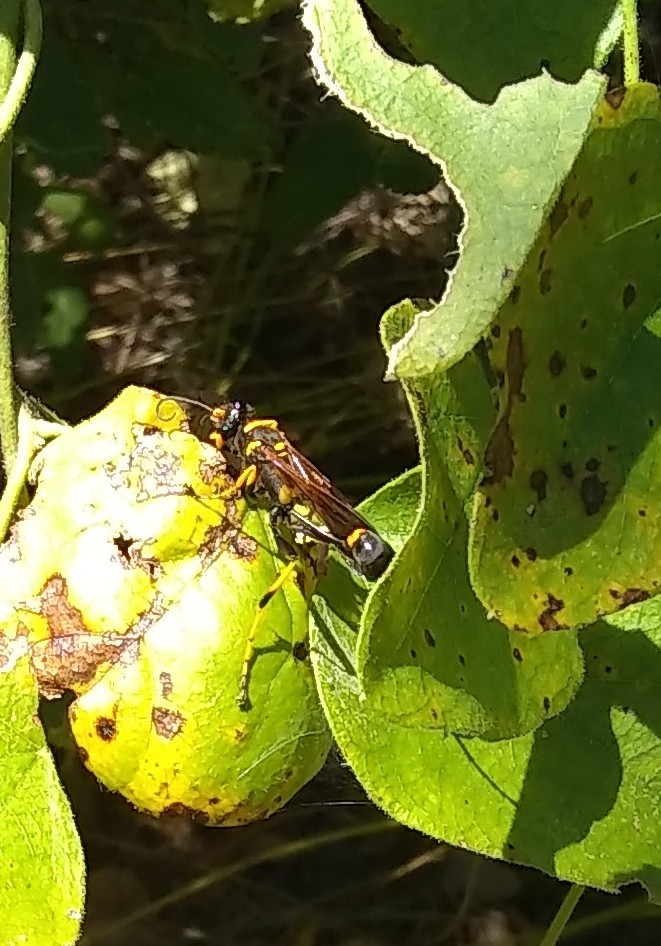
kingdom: Animalia
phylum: Arthropoda
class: Insecta
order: Hymenoptera
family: Sphecidae
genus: Sceliphron
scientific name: Sceliphron caementarium
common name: Mud dauber
